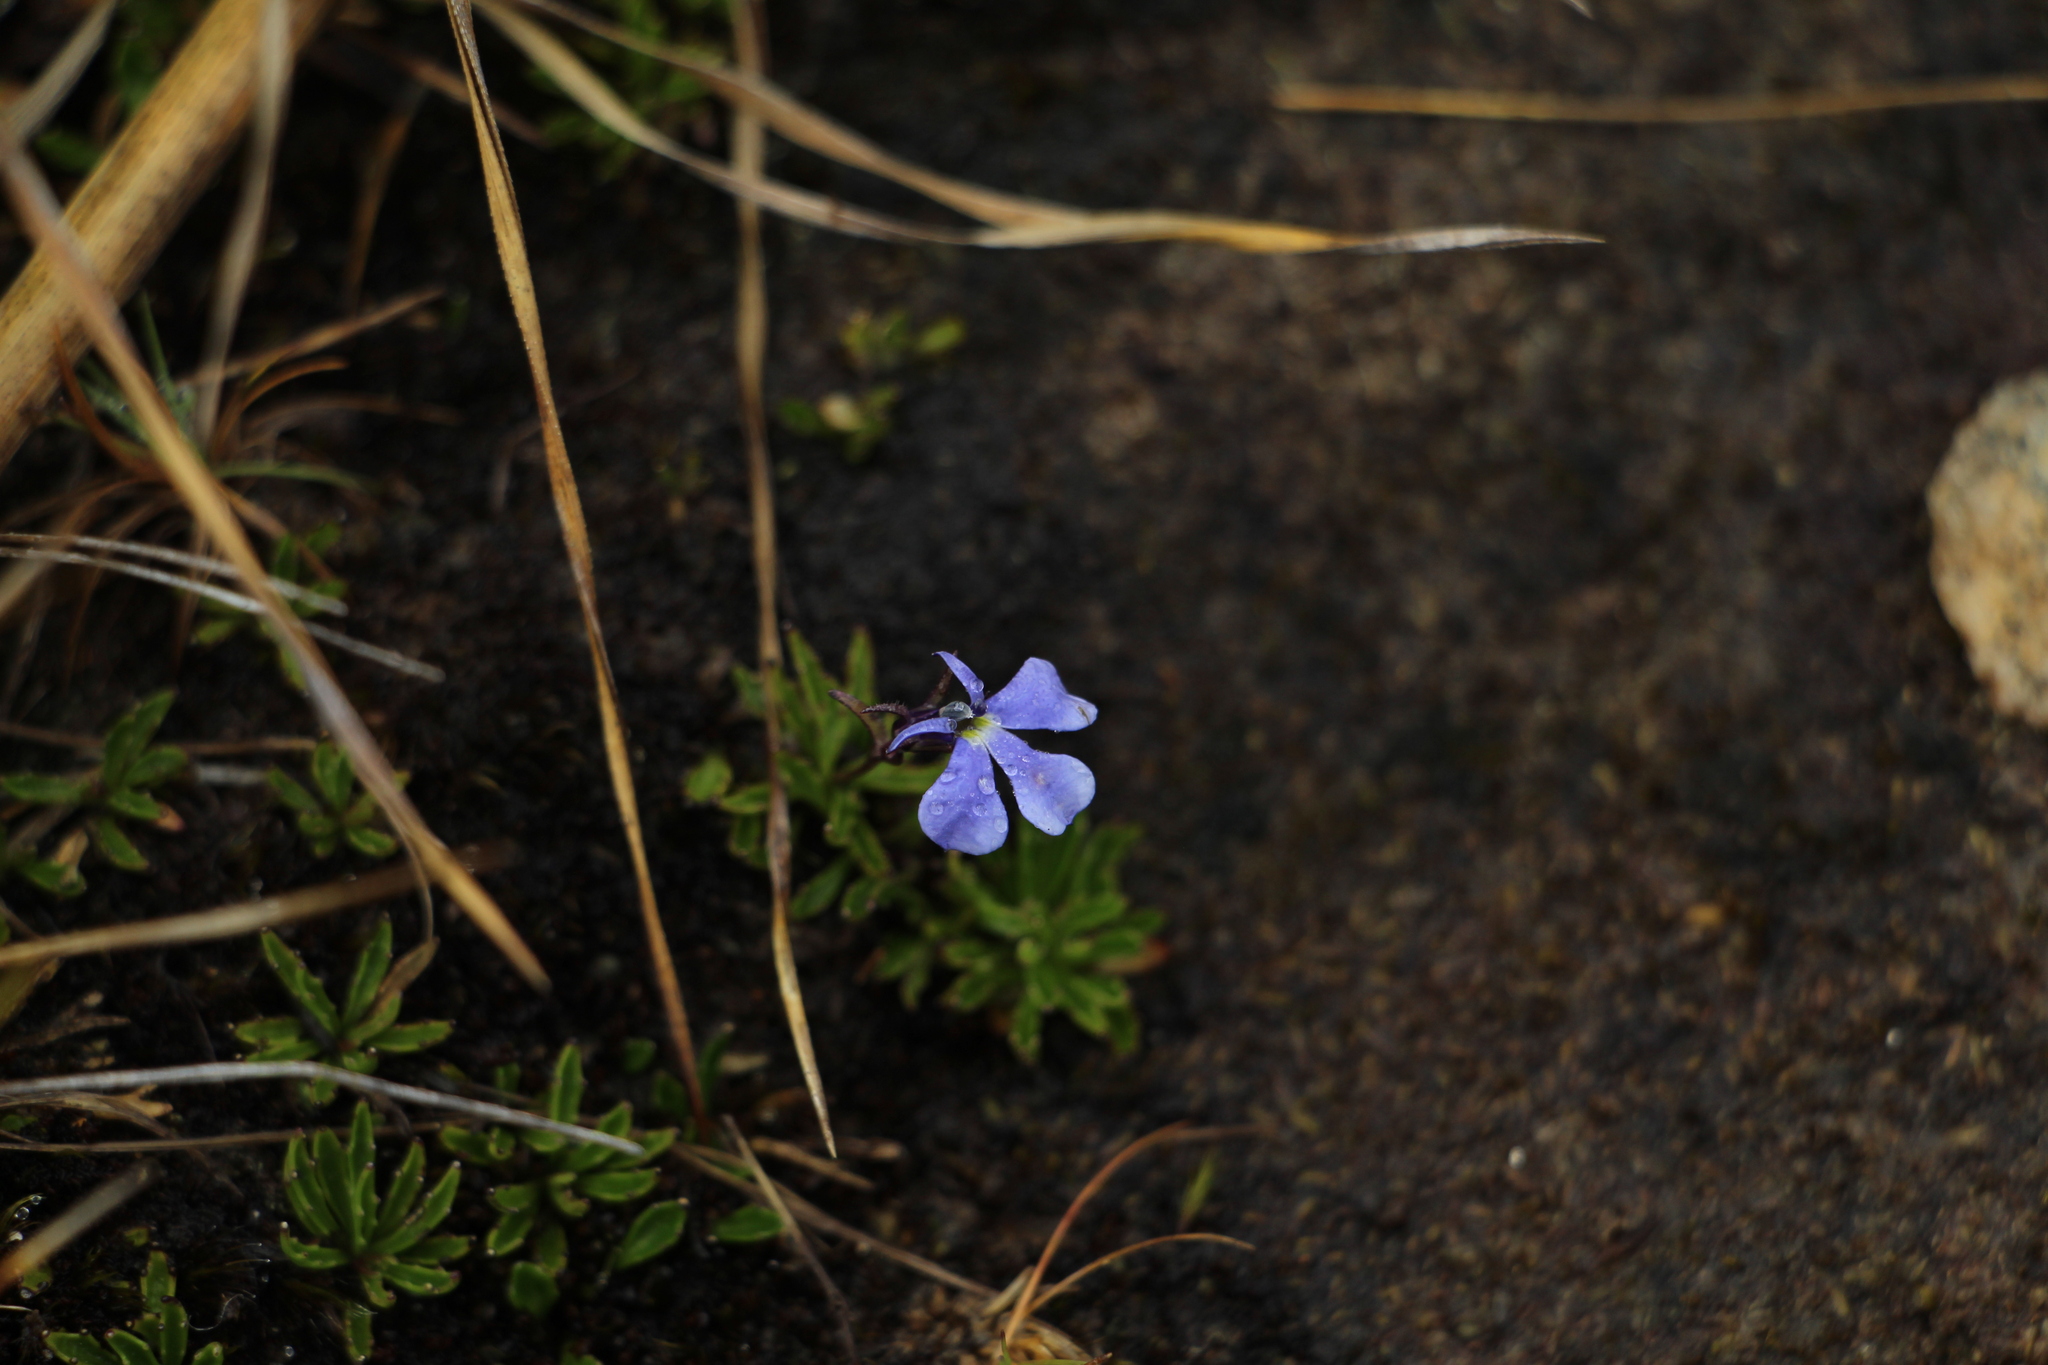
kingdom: Plantae
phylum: Tracheophyta
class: Magnoliopsida
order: Asterales
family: Campanulaceae
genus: Lobelia
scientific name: Lobelia tenera
